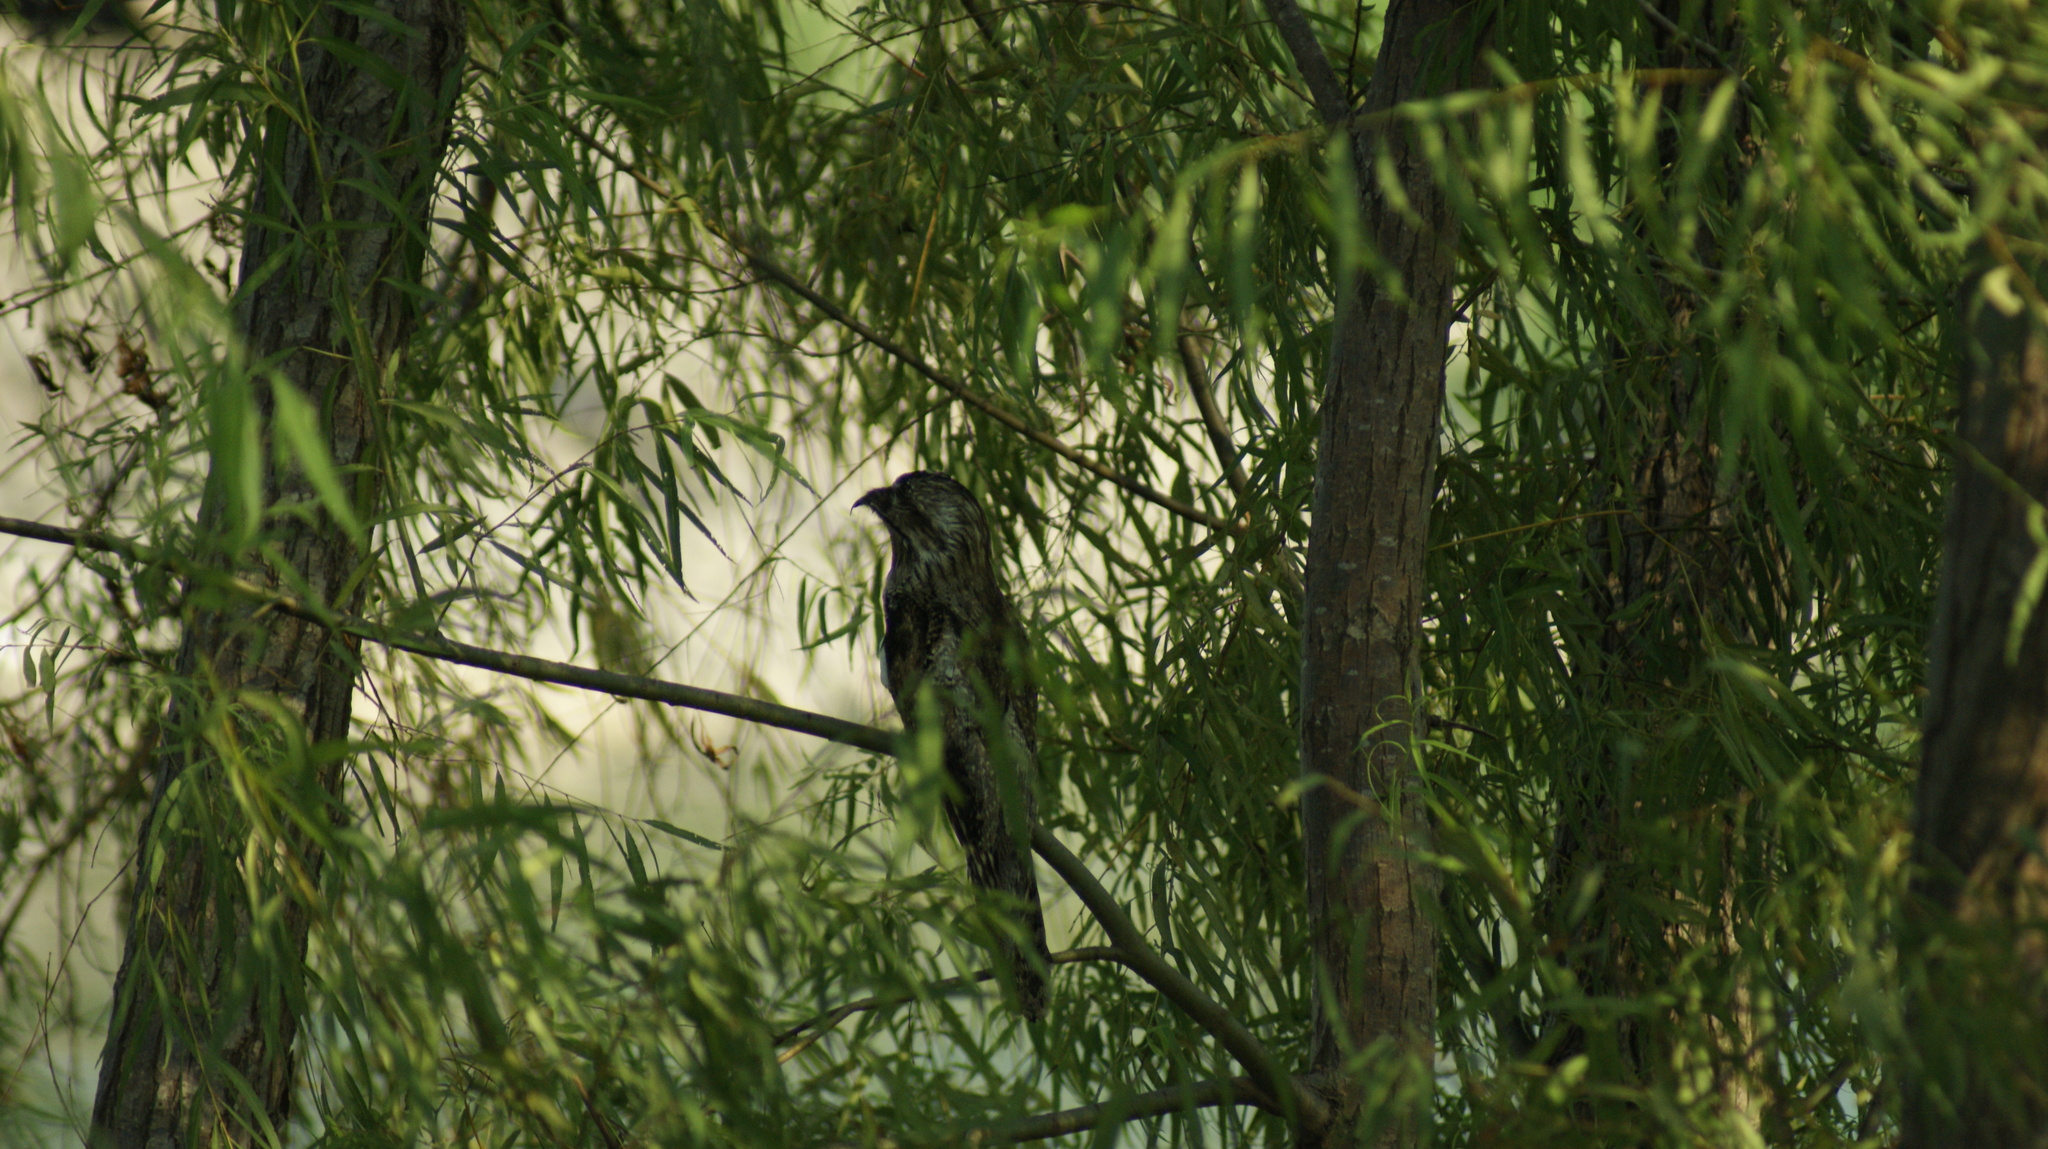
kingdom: Animalia
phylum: Chordata
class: Aves
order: Nyctibiiformes
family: Nyctibiidae
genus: Nyctibius
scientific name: Nyctibius jamaicensis
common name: Northern potoo
